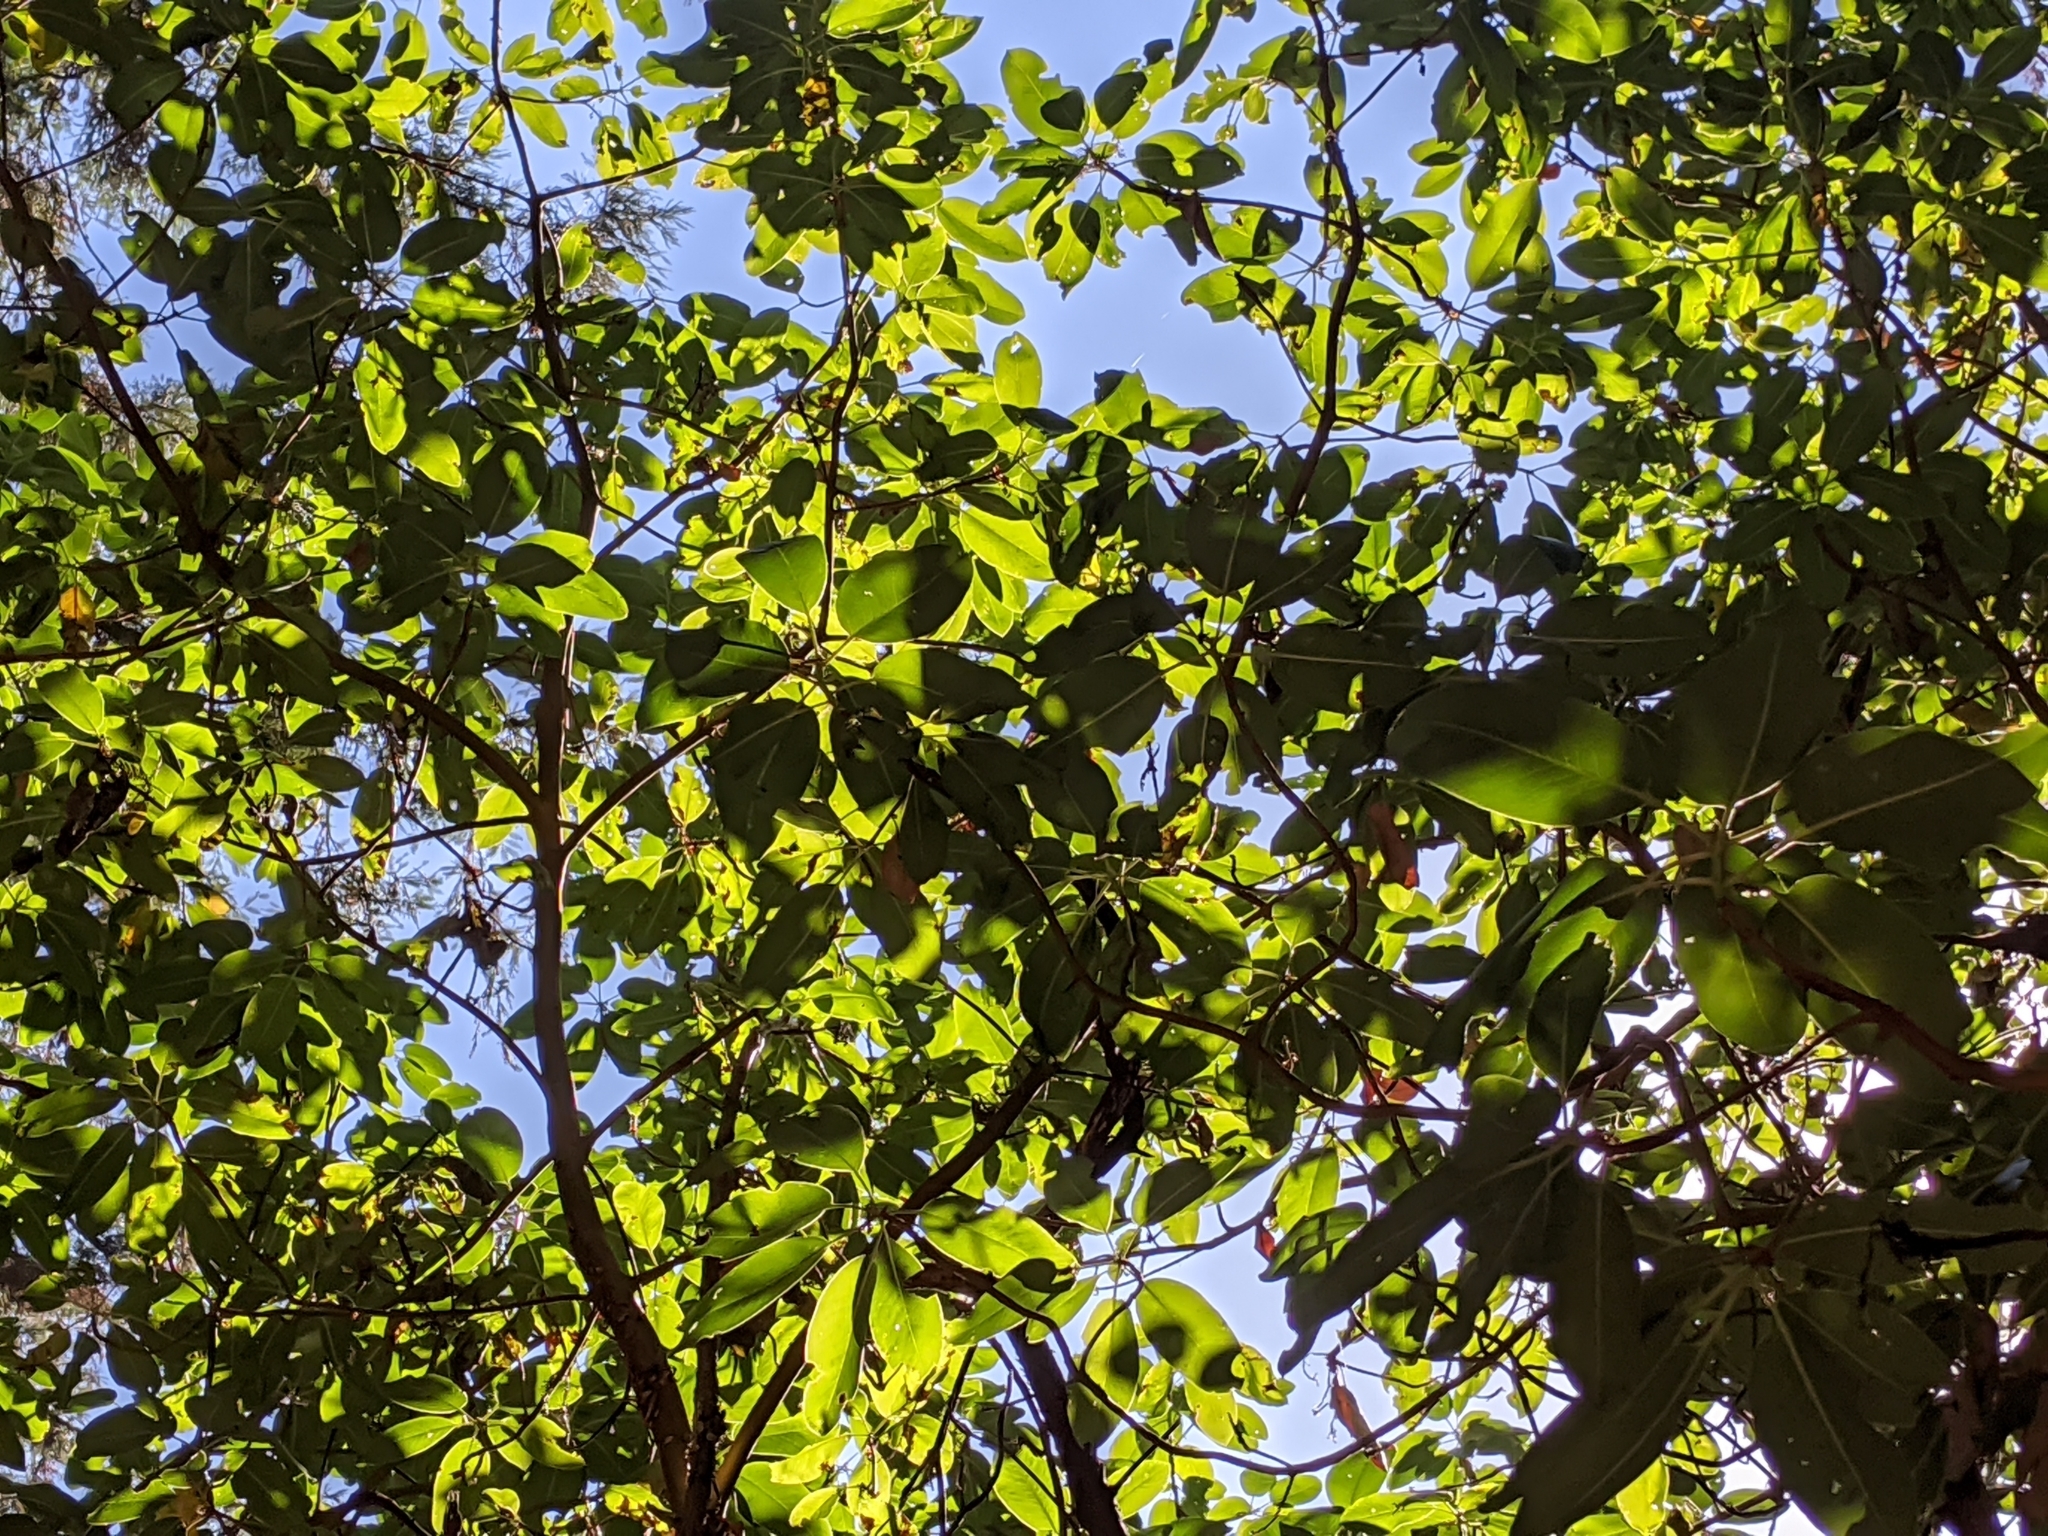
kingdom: Plantae
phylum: Tracheophyta
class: Magnoliopsida
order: Ericales
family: Ericaceae
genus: Arbutus
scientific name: Arbutus menziesii
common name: Pacific madrone
